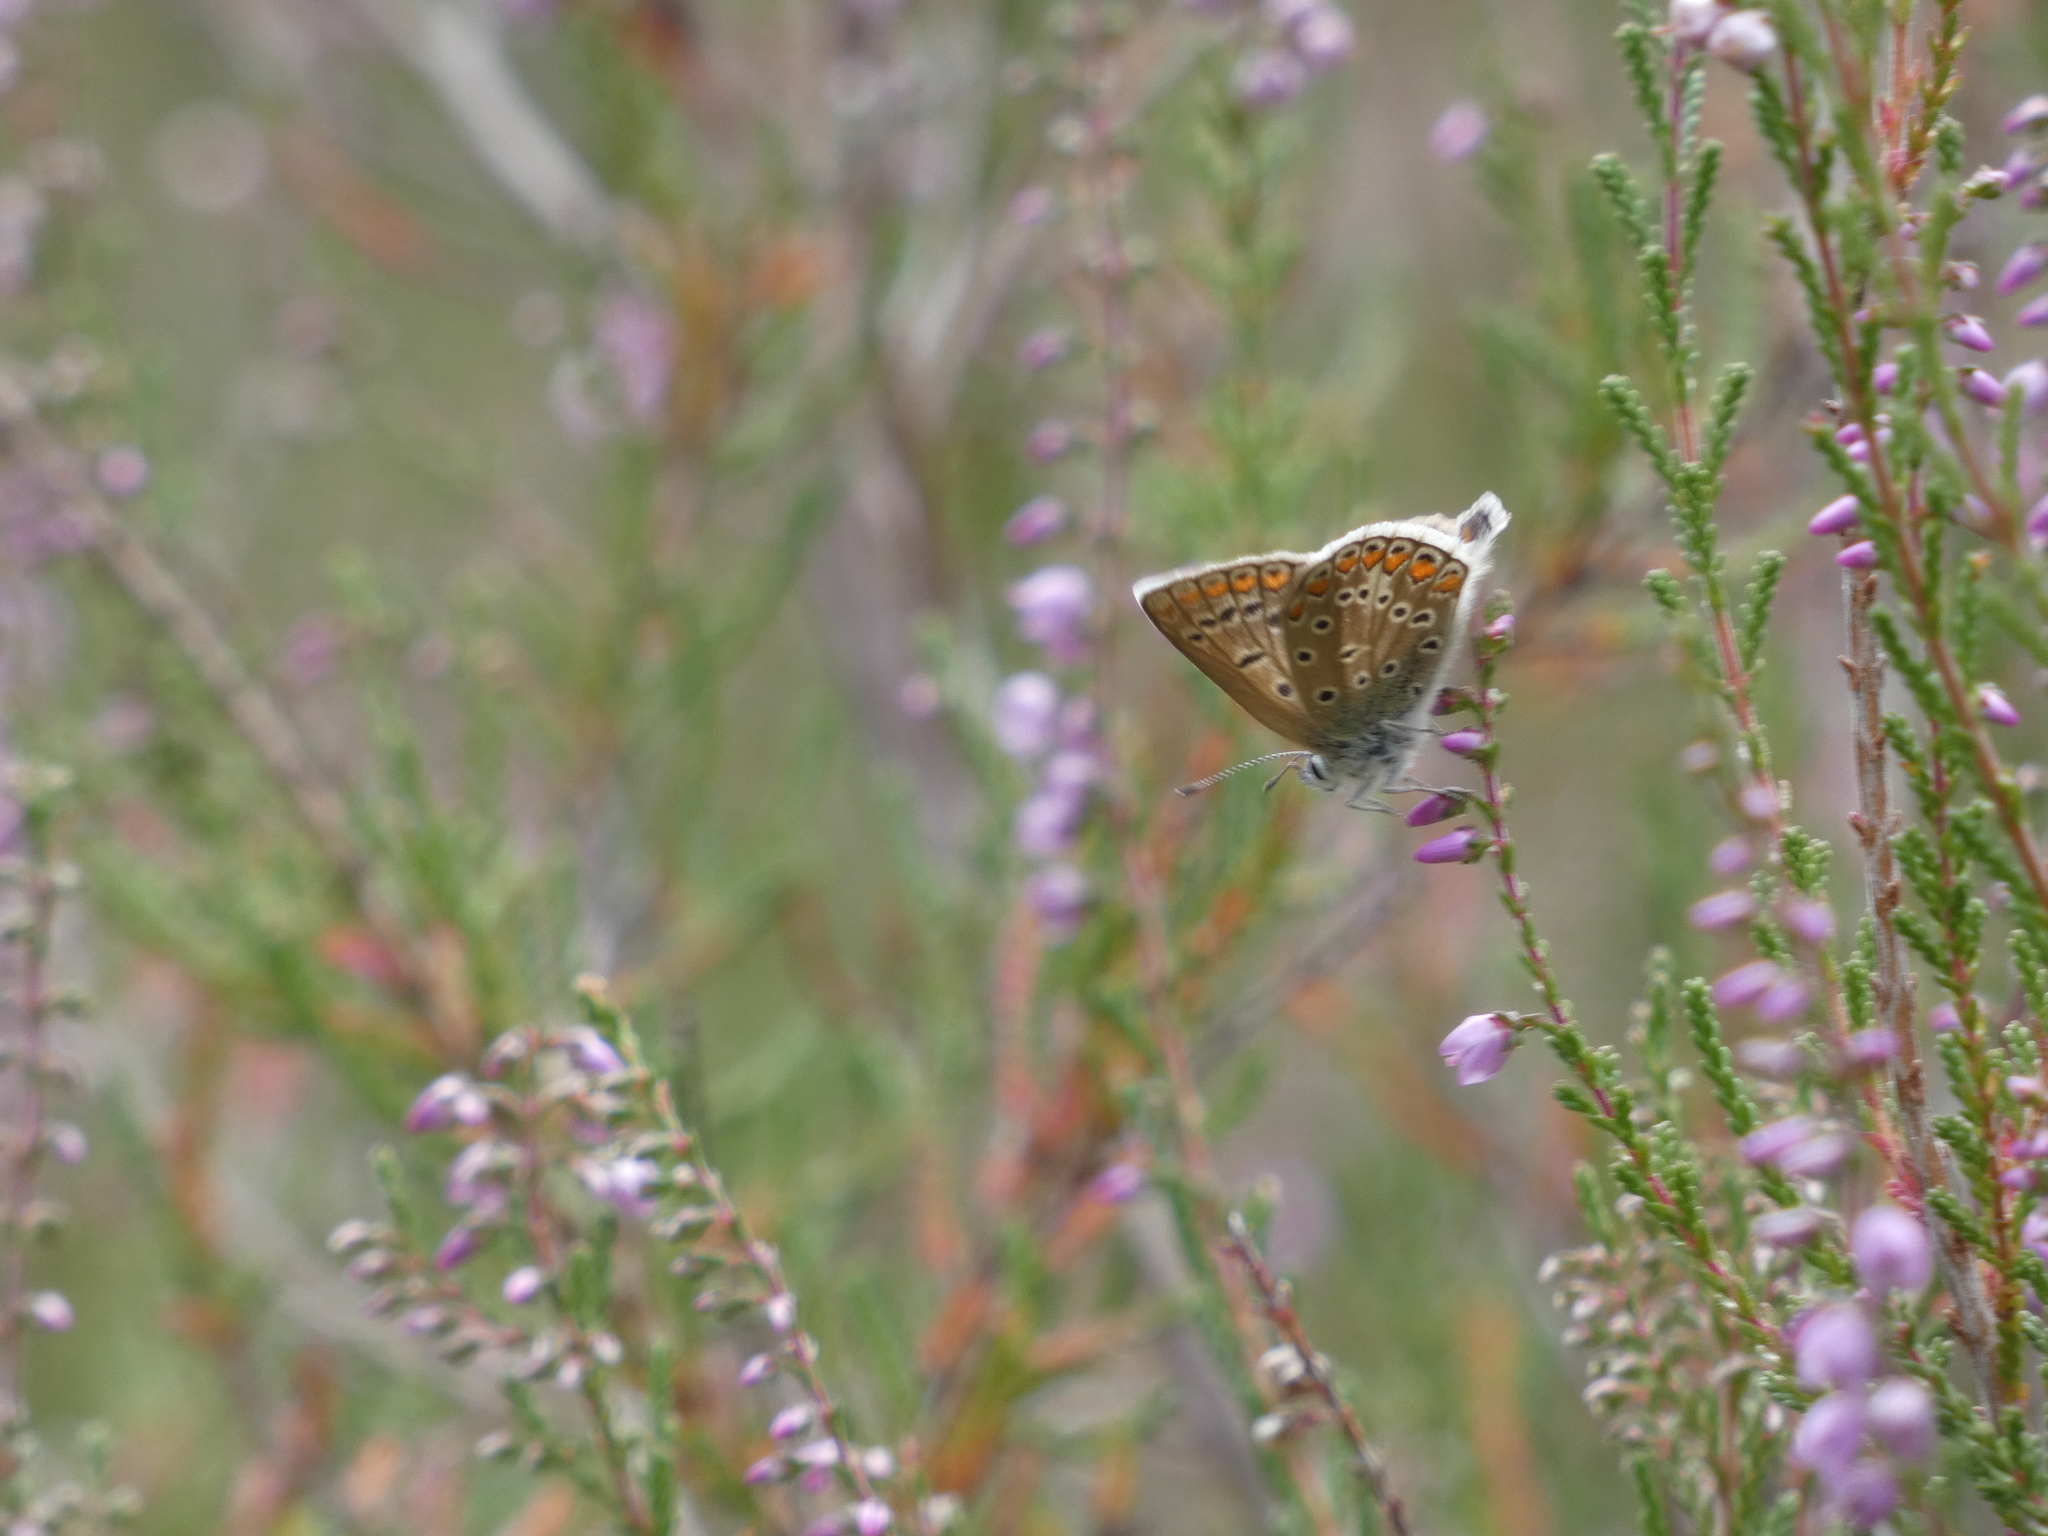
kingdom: Animalia
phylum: Arthropoda
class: Insecta
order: Lepidoptera
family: Lycaenidae
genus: Polyommatus
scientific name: Polyommatus icarus
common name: Common blue
